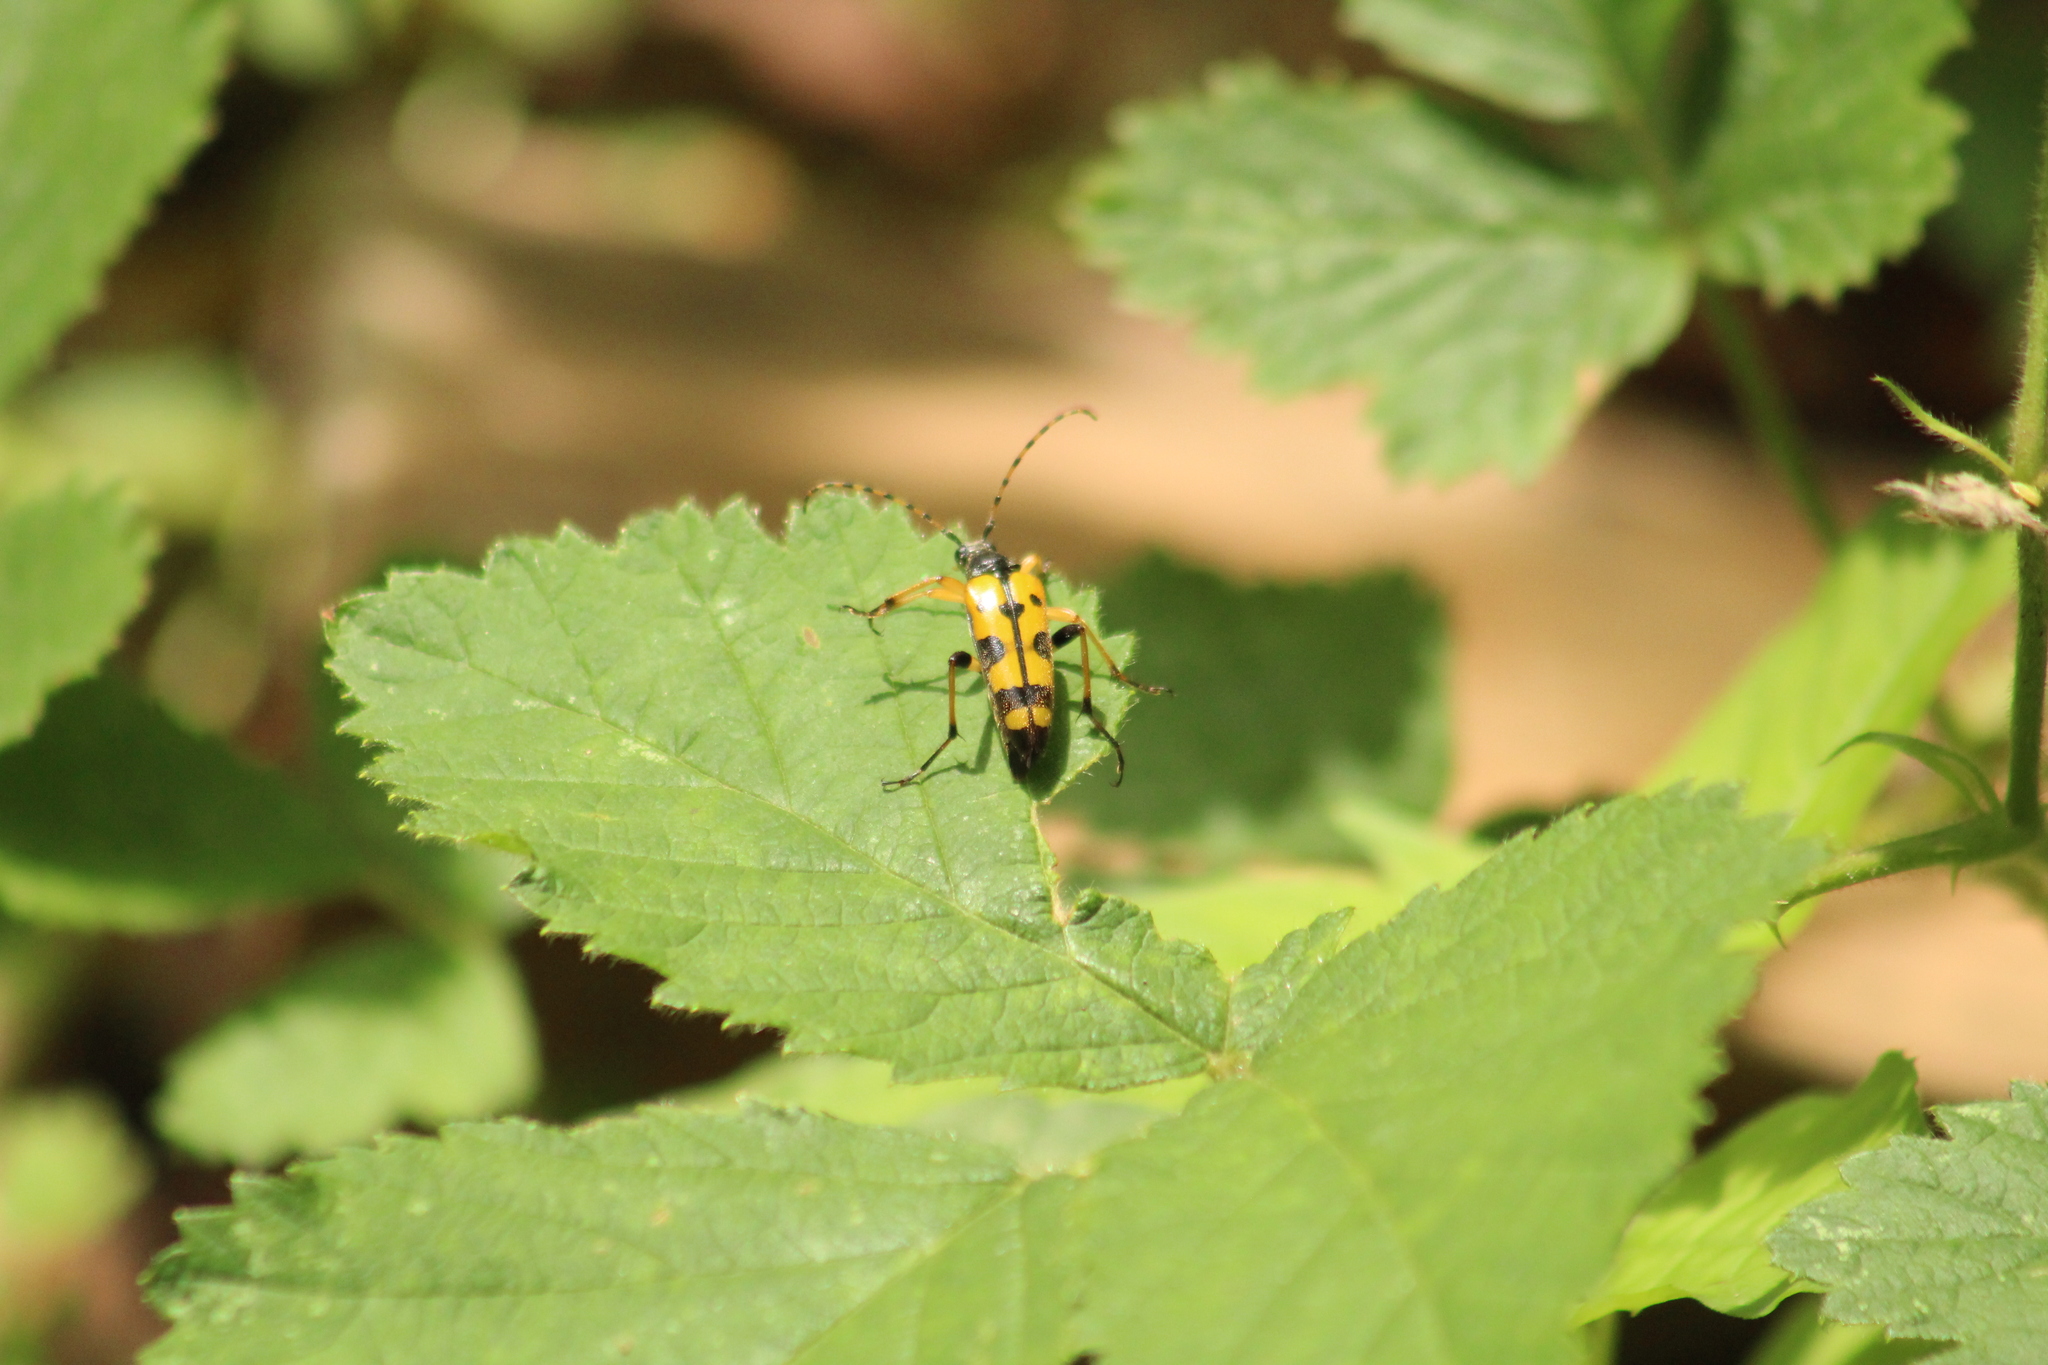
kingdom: Animalia
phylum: Arthropoda
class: Insecta
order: Coleoptera
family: Cerambycidae
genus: Rutpela
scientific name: Rutpela maculata
